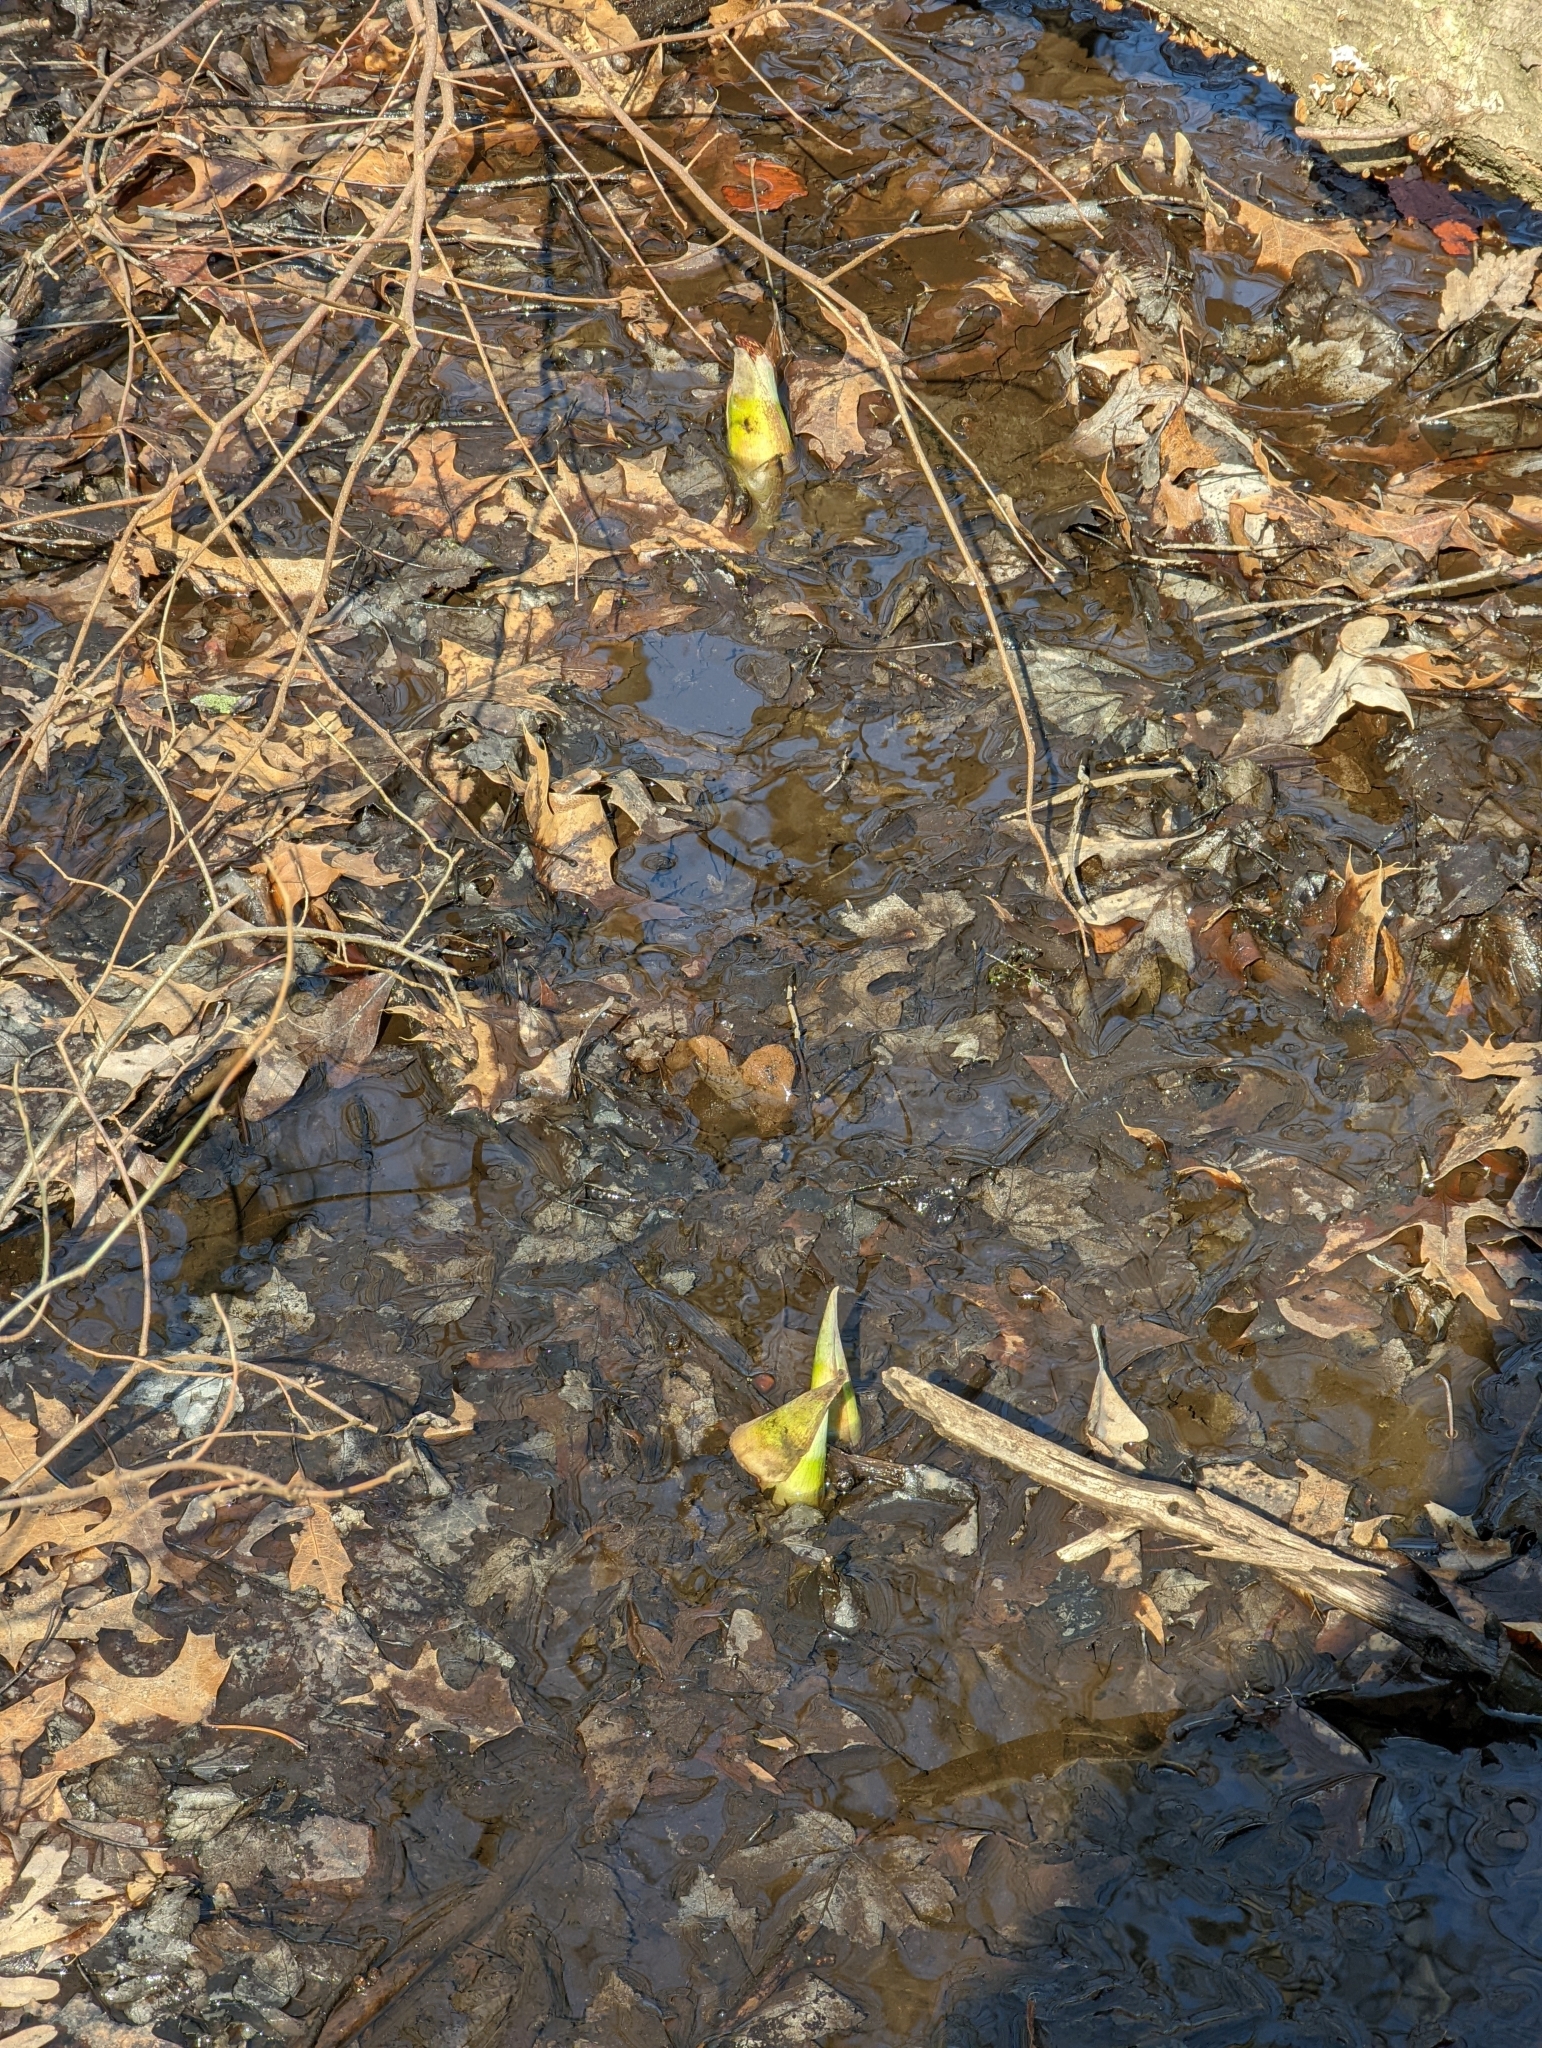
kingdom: Plantae
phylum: Tracheophyta
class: Liliopsida
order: Alismatales
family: Araceae
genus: Symplocarpus
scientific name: Symplocarpus foetidus
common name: Eastern skunk cabbage
